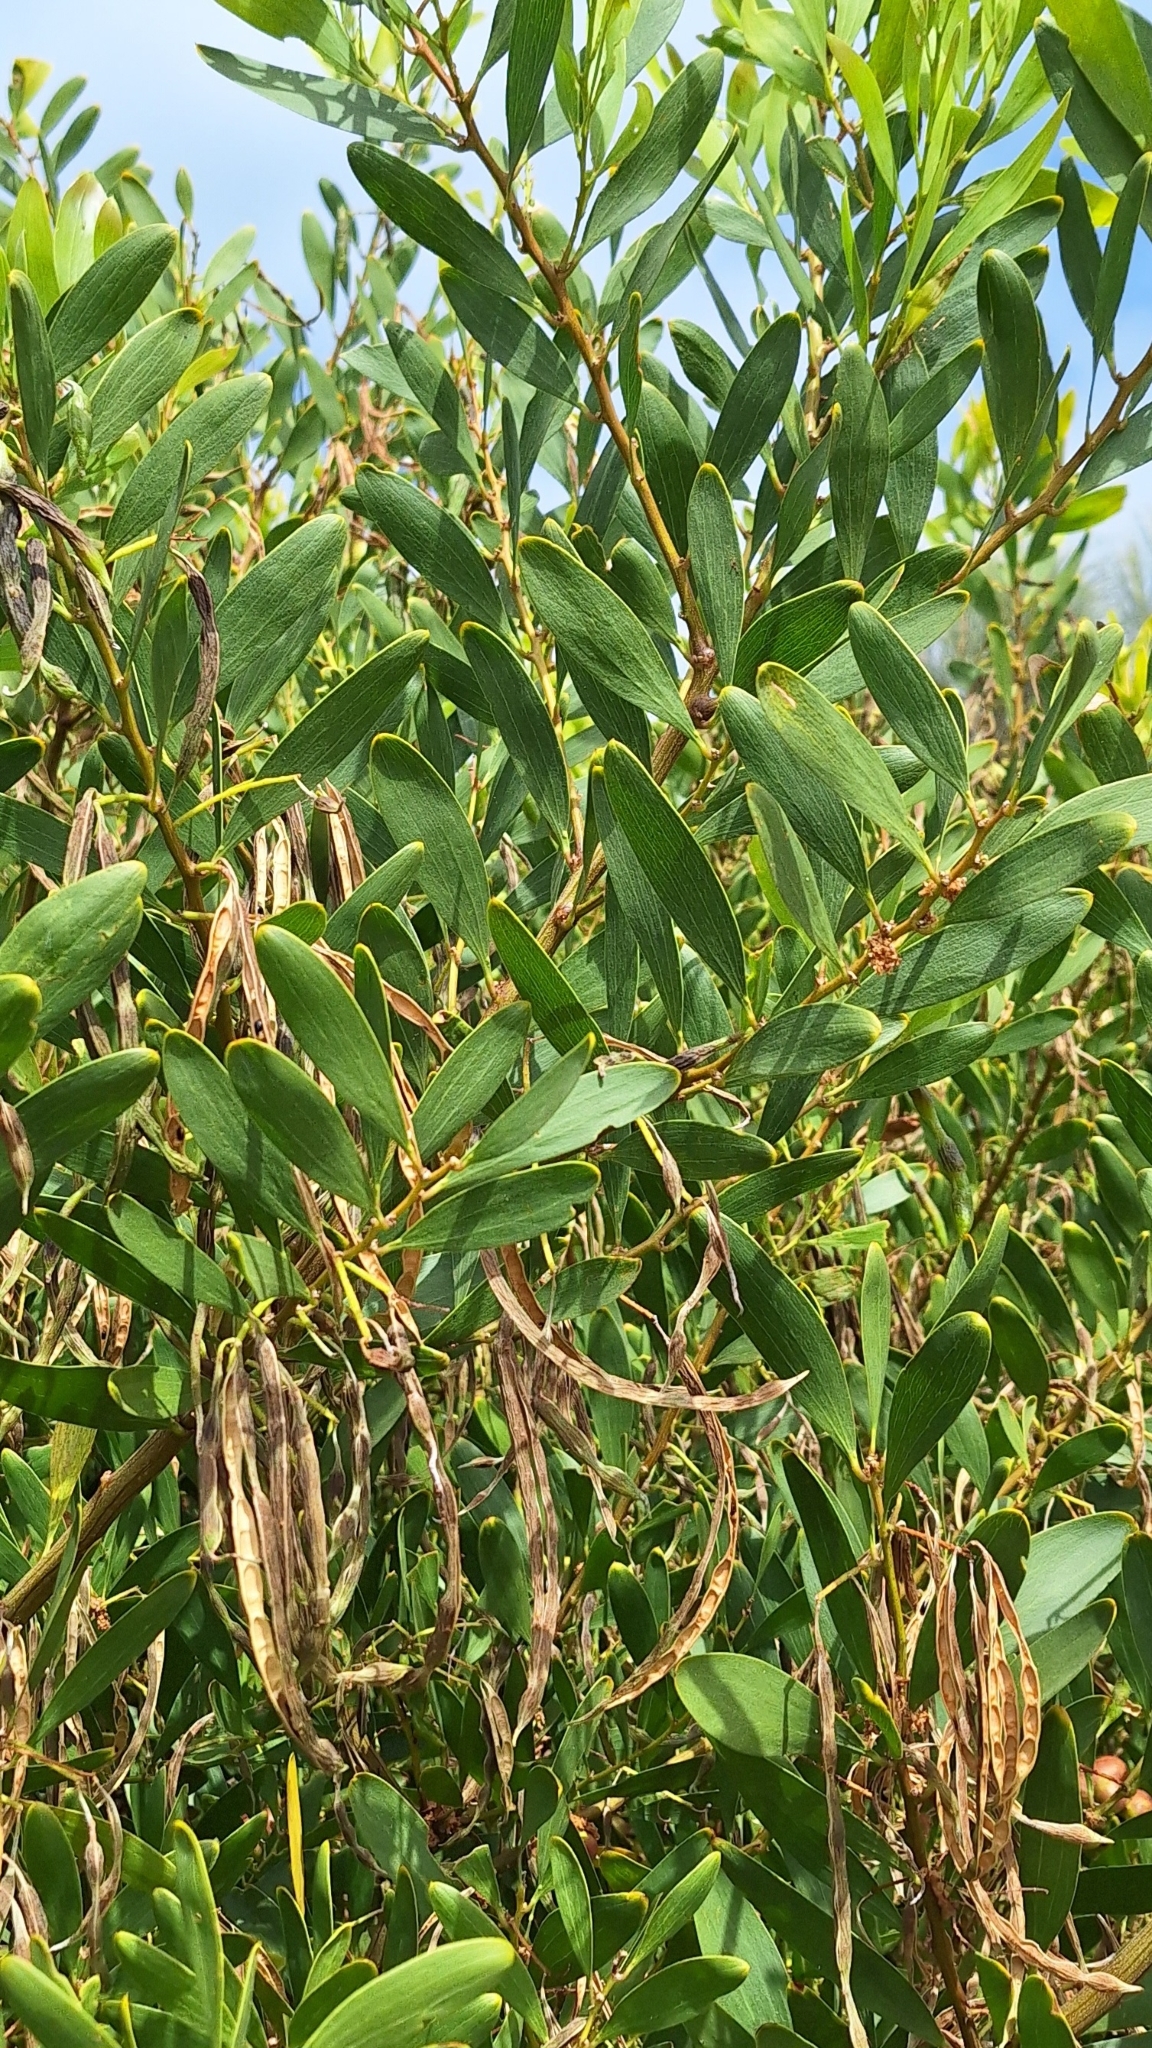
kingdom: Plantae
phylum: Tracheophyta
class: Magnoliopsida
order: Fabales
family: Fabaceae
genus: Acacia
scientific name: Acacia longifolia
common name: Sydney golden wattle
